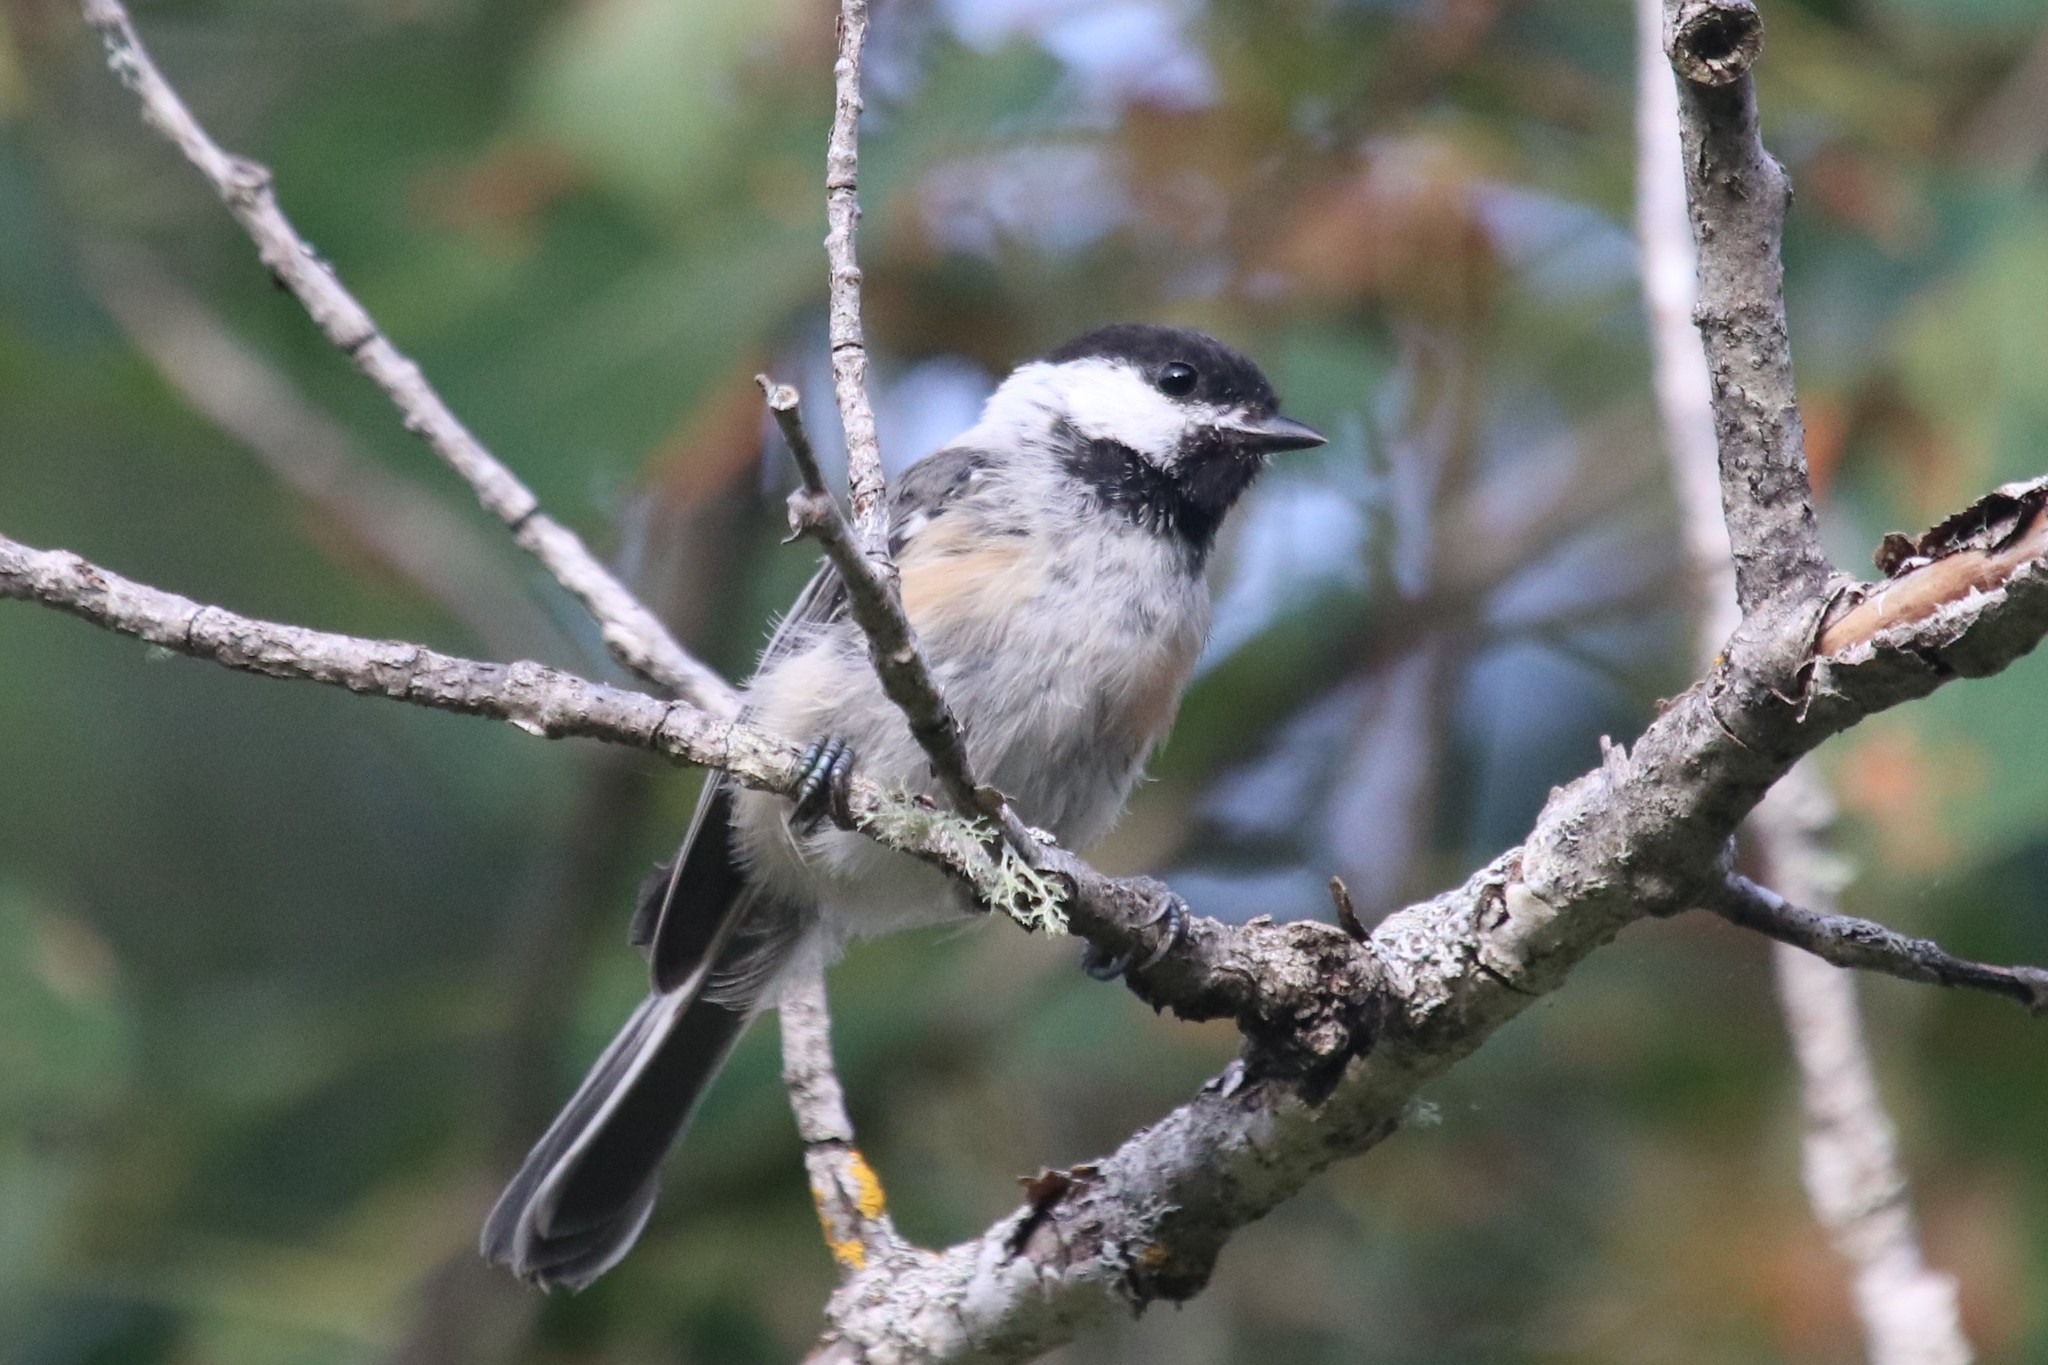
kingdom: Animalia
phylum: Chordata
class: Aves
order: Passeriformes
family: Paridae
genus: Poecile
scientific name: Poecile atricapillus
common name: Black-capped chickadee
